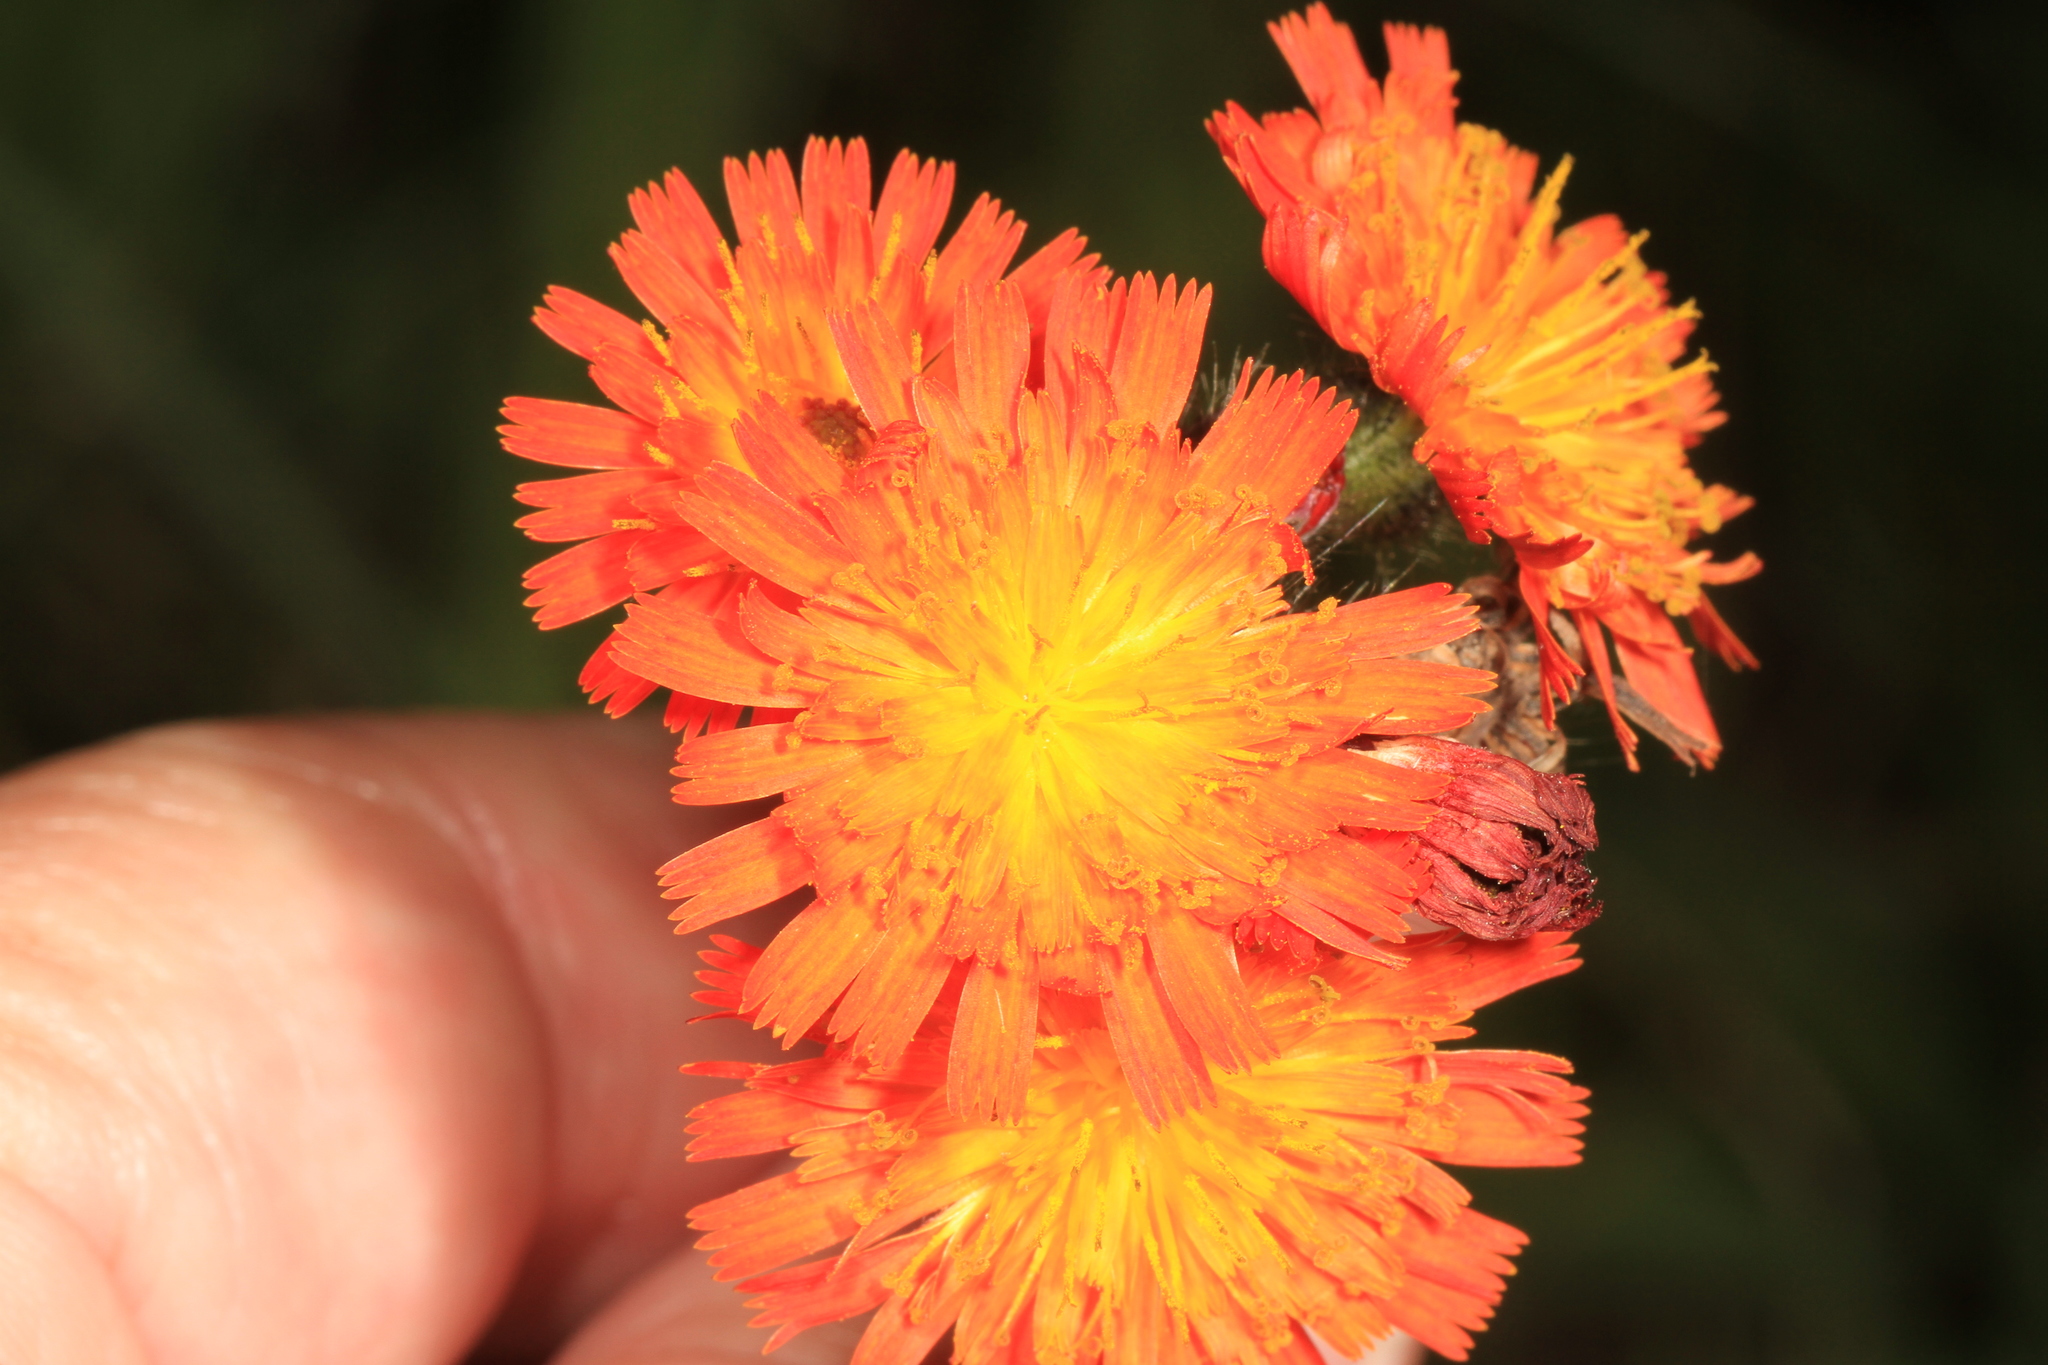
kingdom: Plantae
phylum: Tracheophyta
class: Magnoliopsida
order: Asterales
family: Asteraceae
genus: Pilosella
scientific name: Pilosella aurantiaca
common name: Fox-and-cubs
